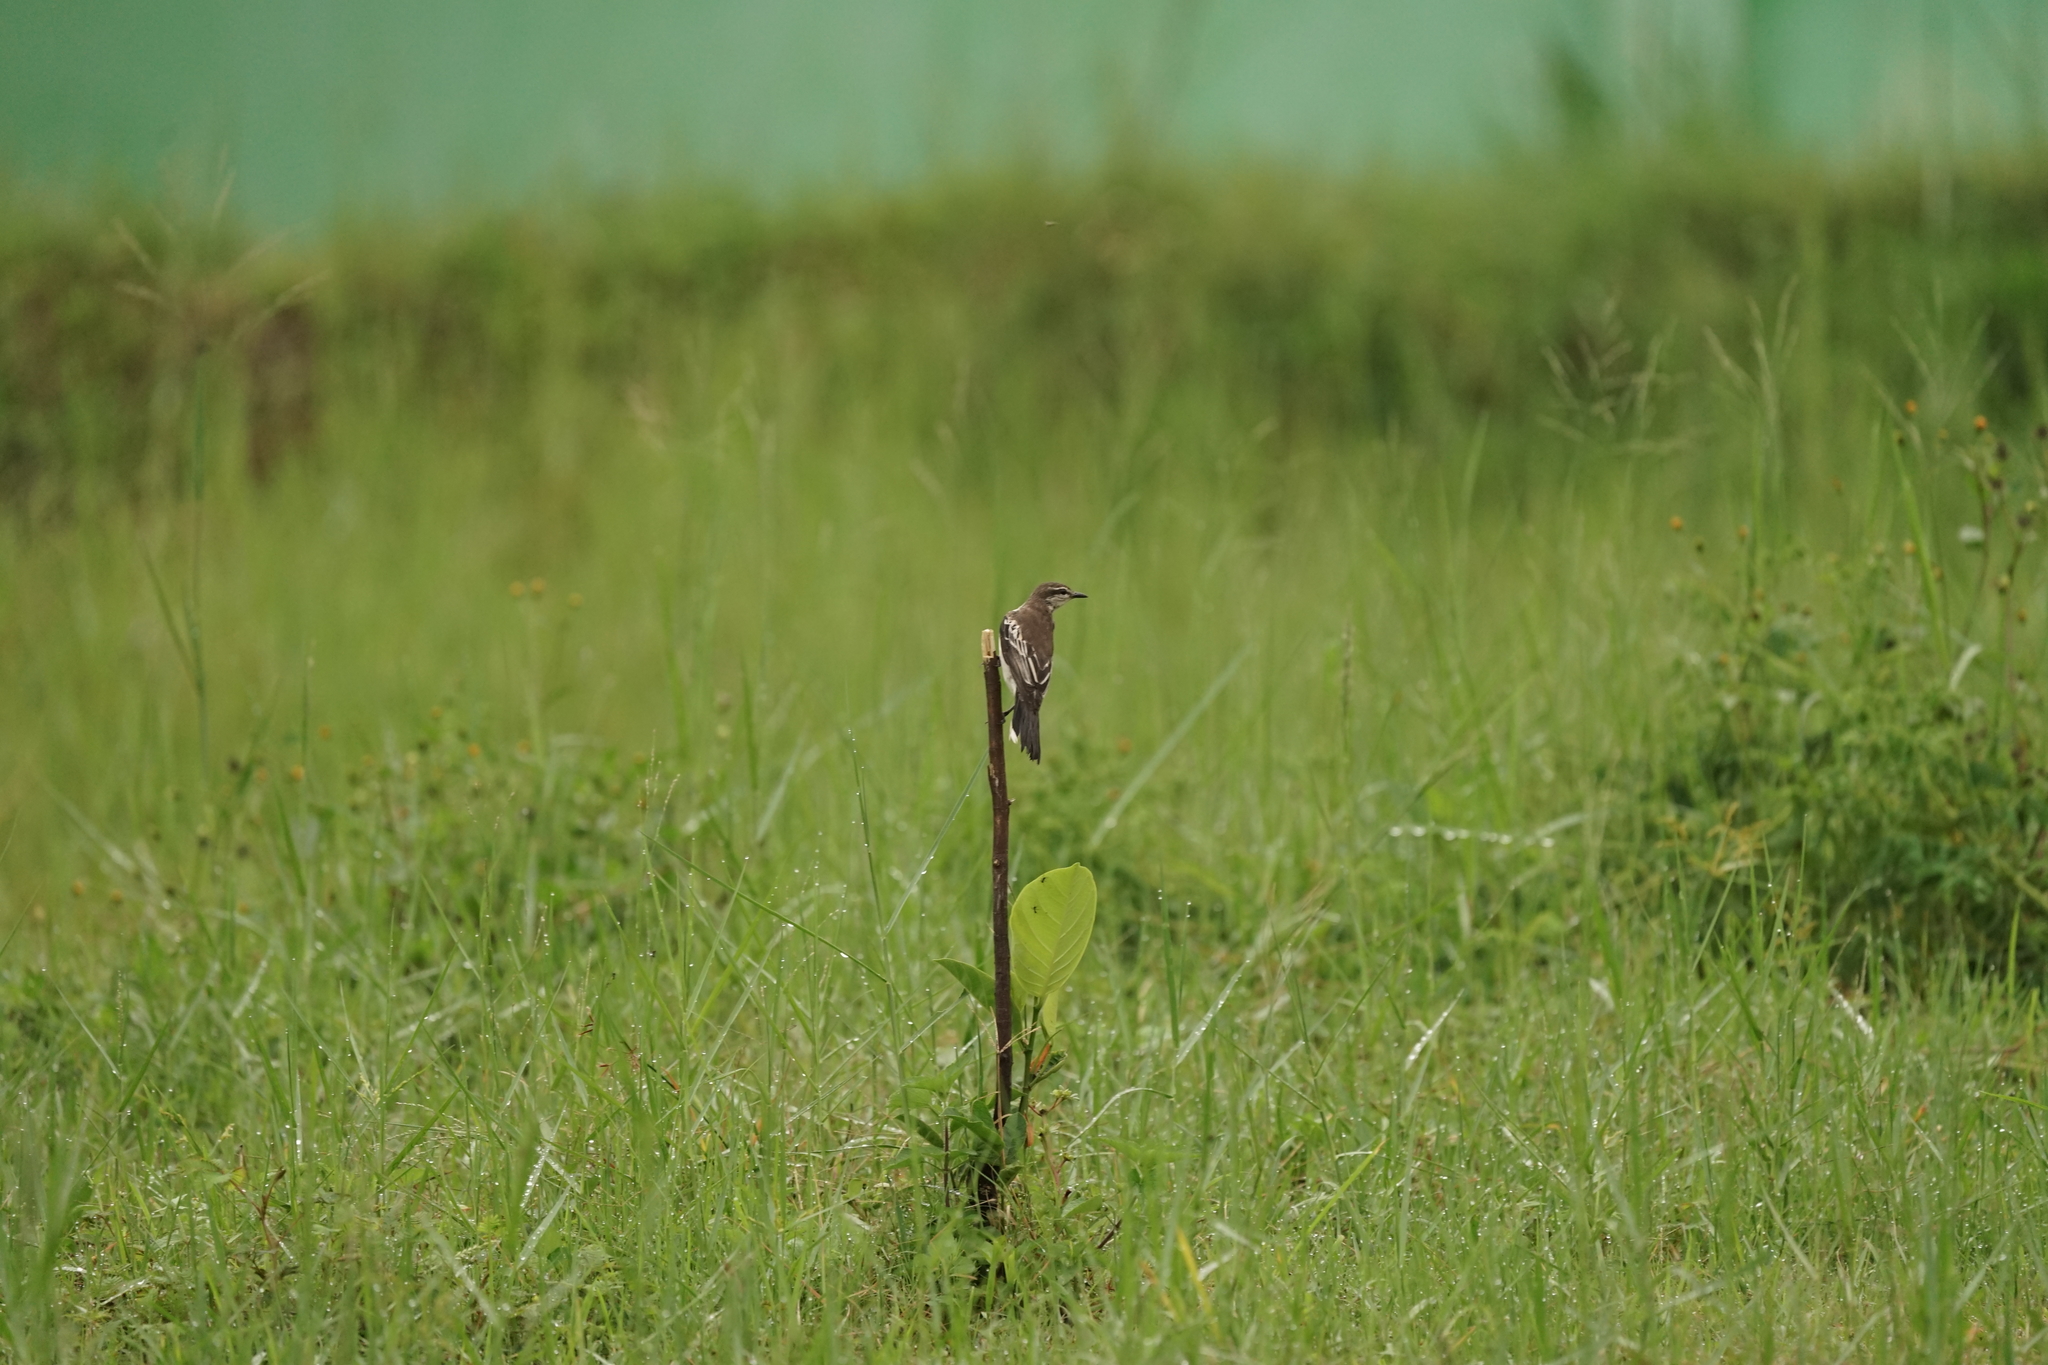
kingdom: Animalia
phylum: Chordata
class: Aves
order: Passeriformes
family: Campephagidae
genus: Lalage
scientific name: Lalage sueurii
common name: White-shouldered triller
